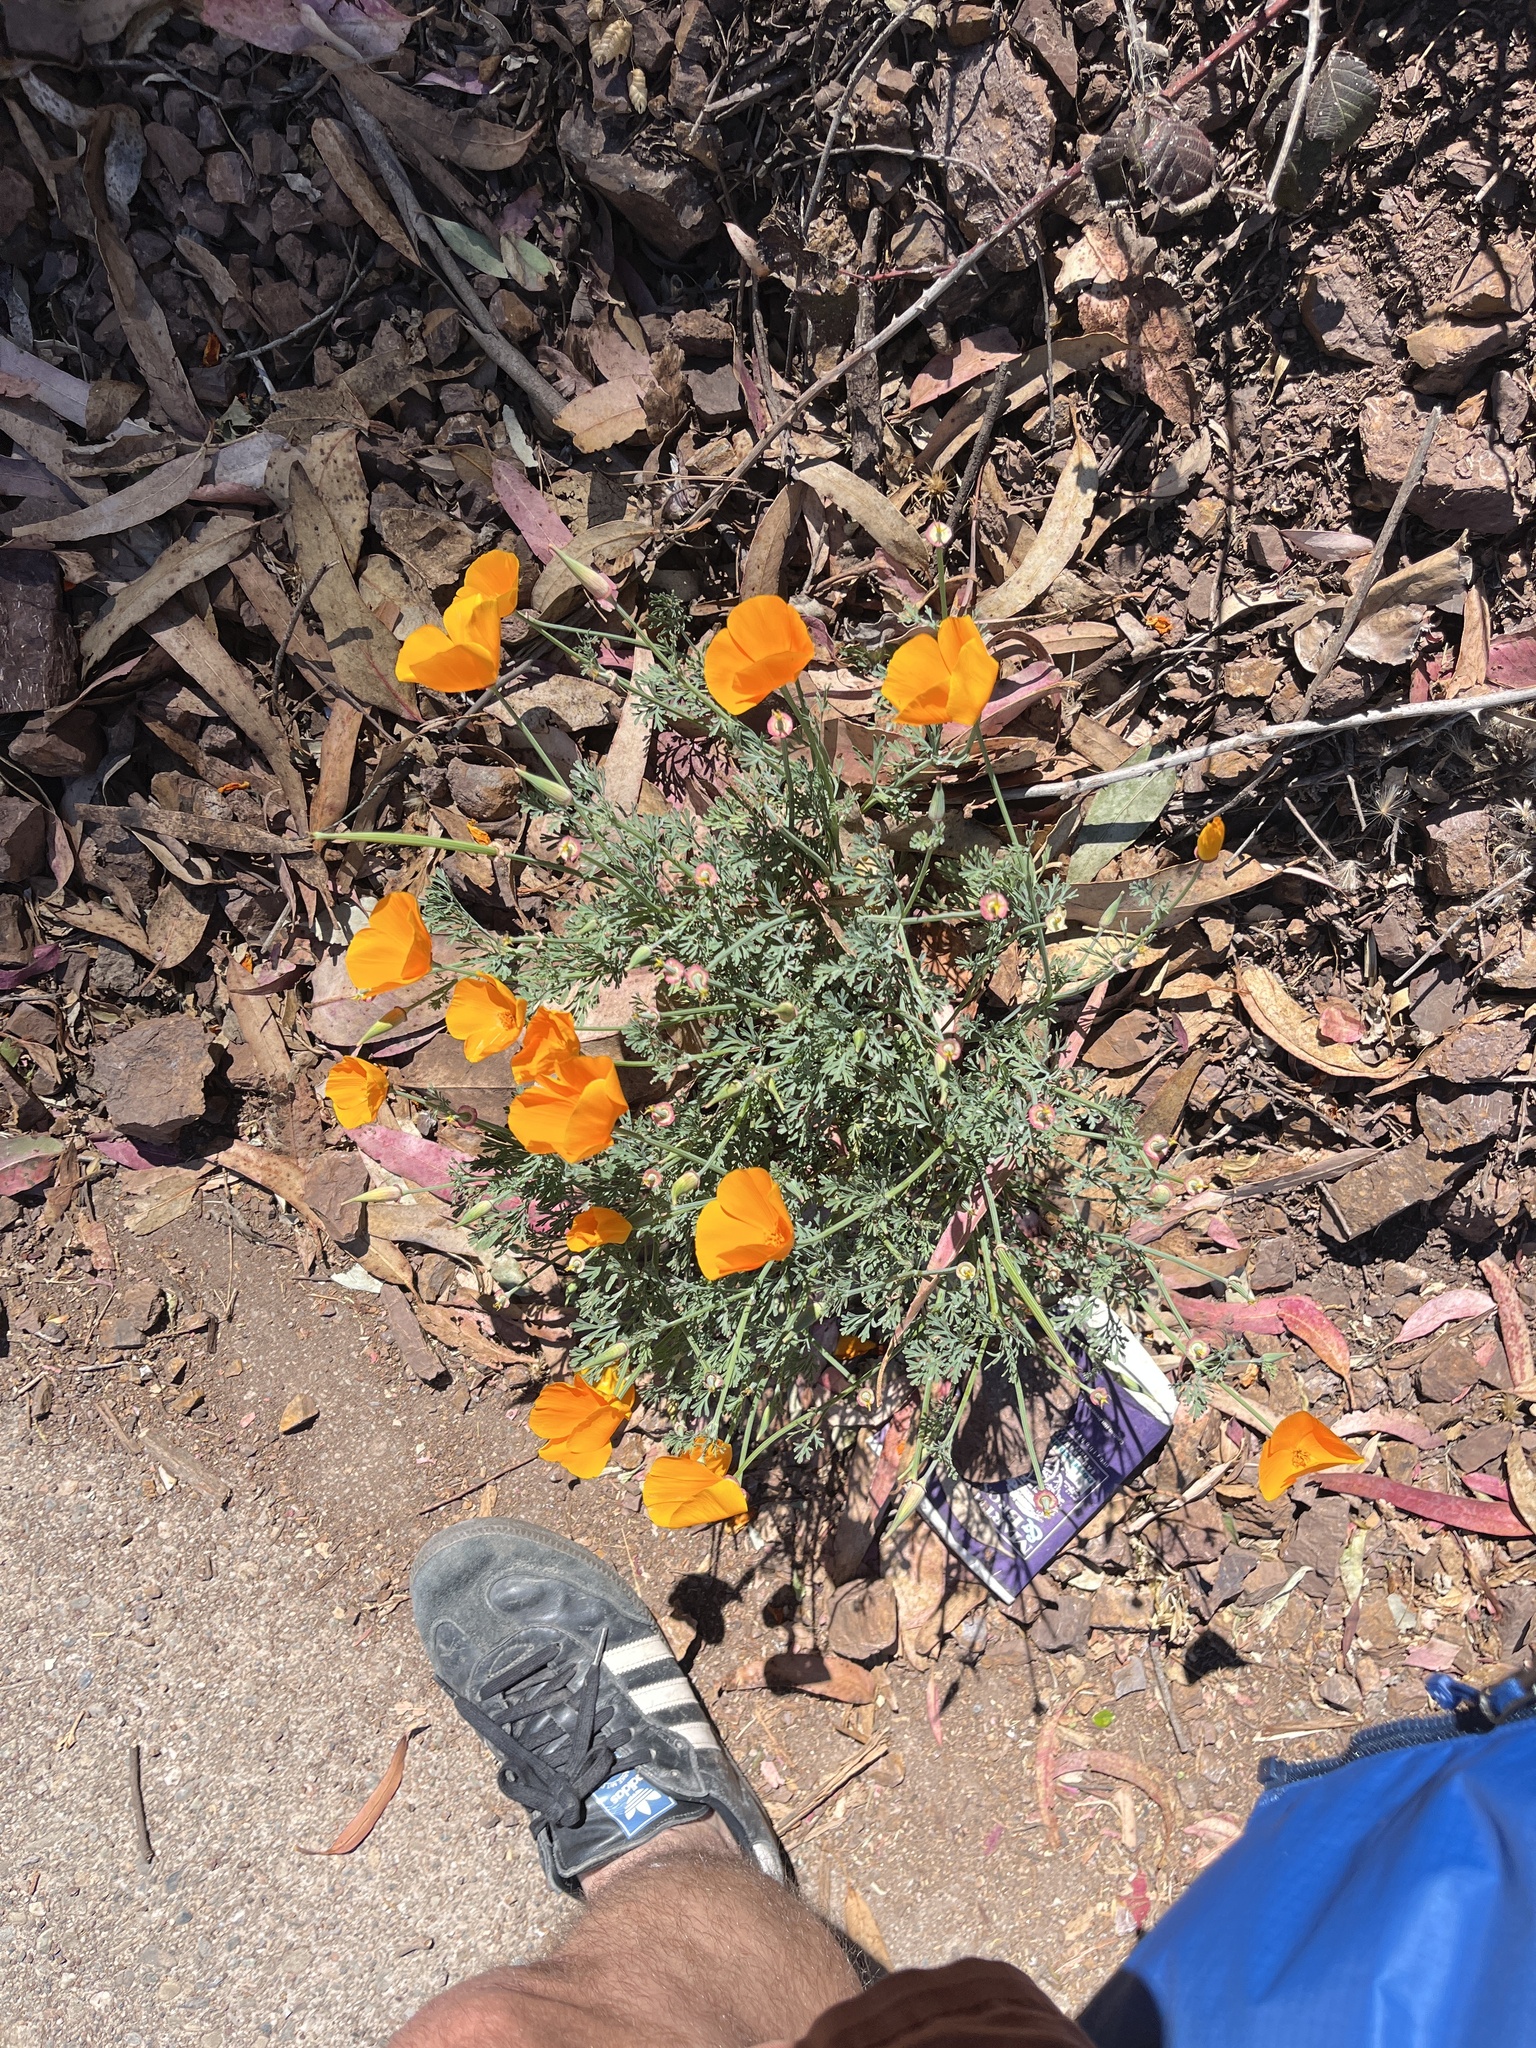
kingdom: Plantae
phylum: Tracheophyta
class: Magnoliopsida
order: Ranunculales
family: Papaveraceae
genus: Eschscholzia
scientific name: Eschscholzia californica
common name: California poppy
